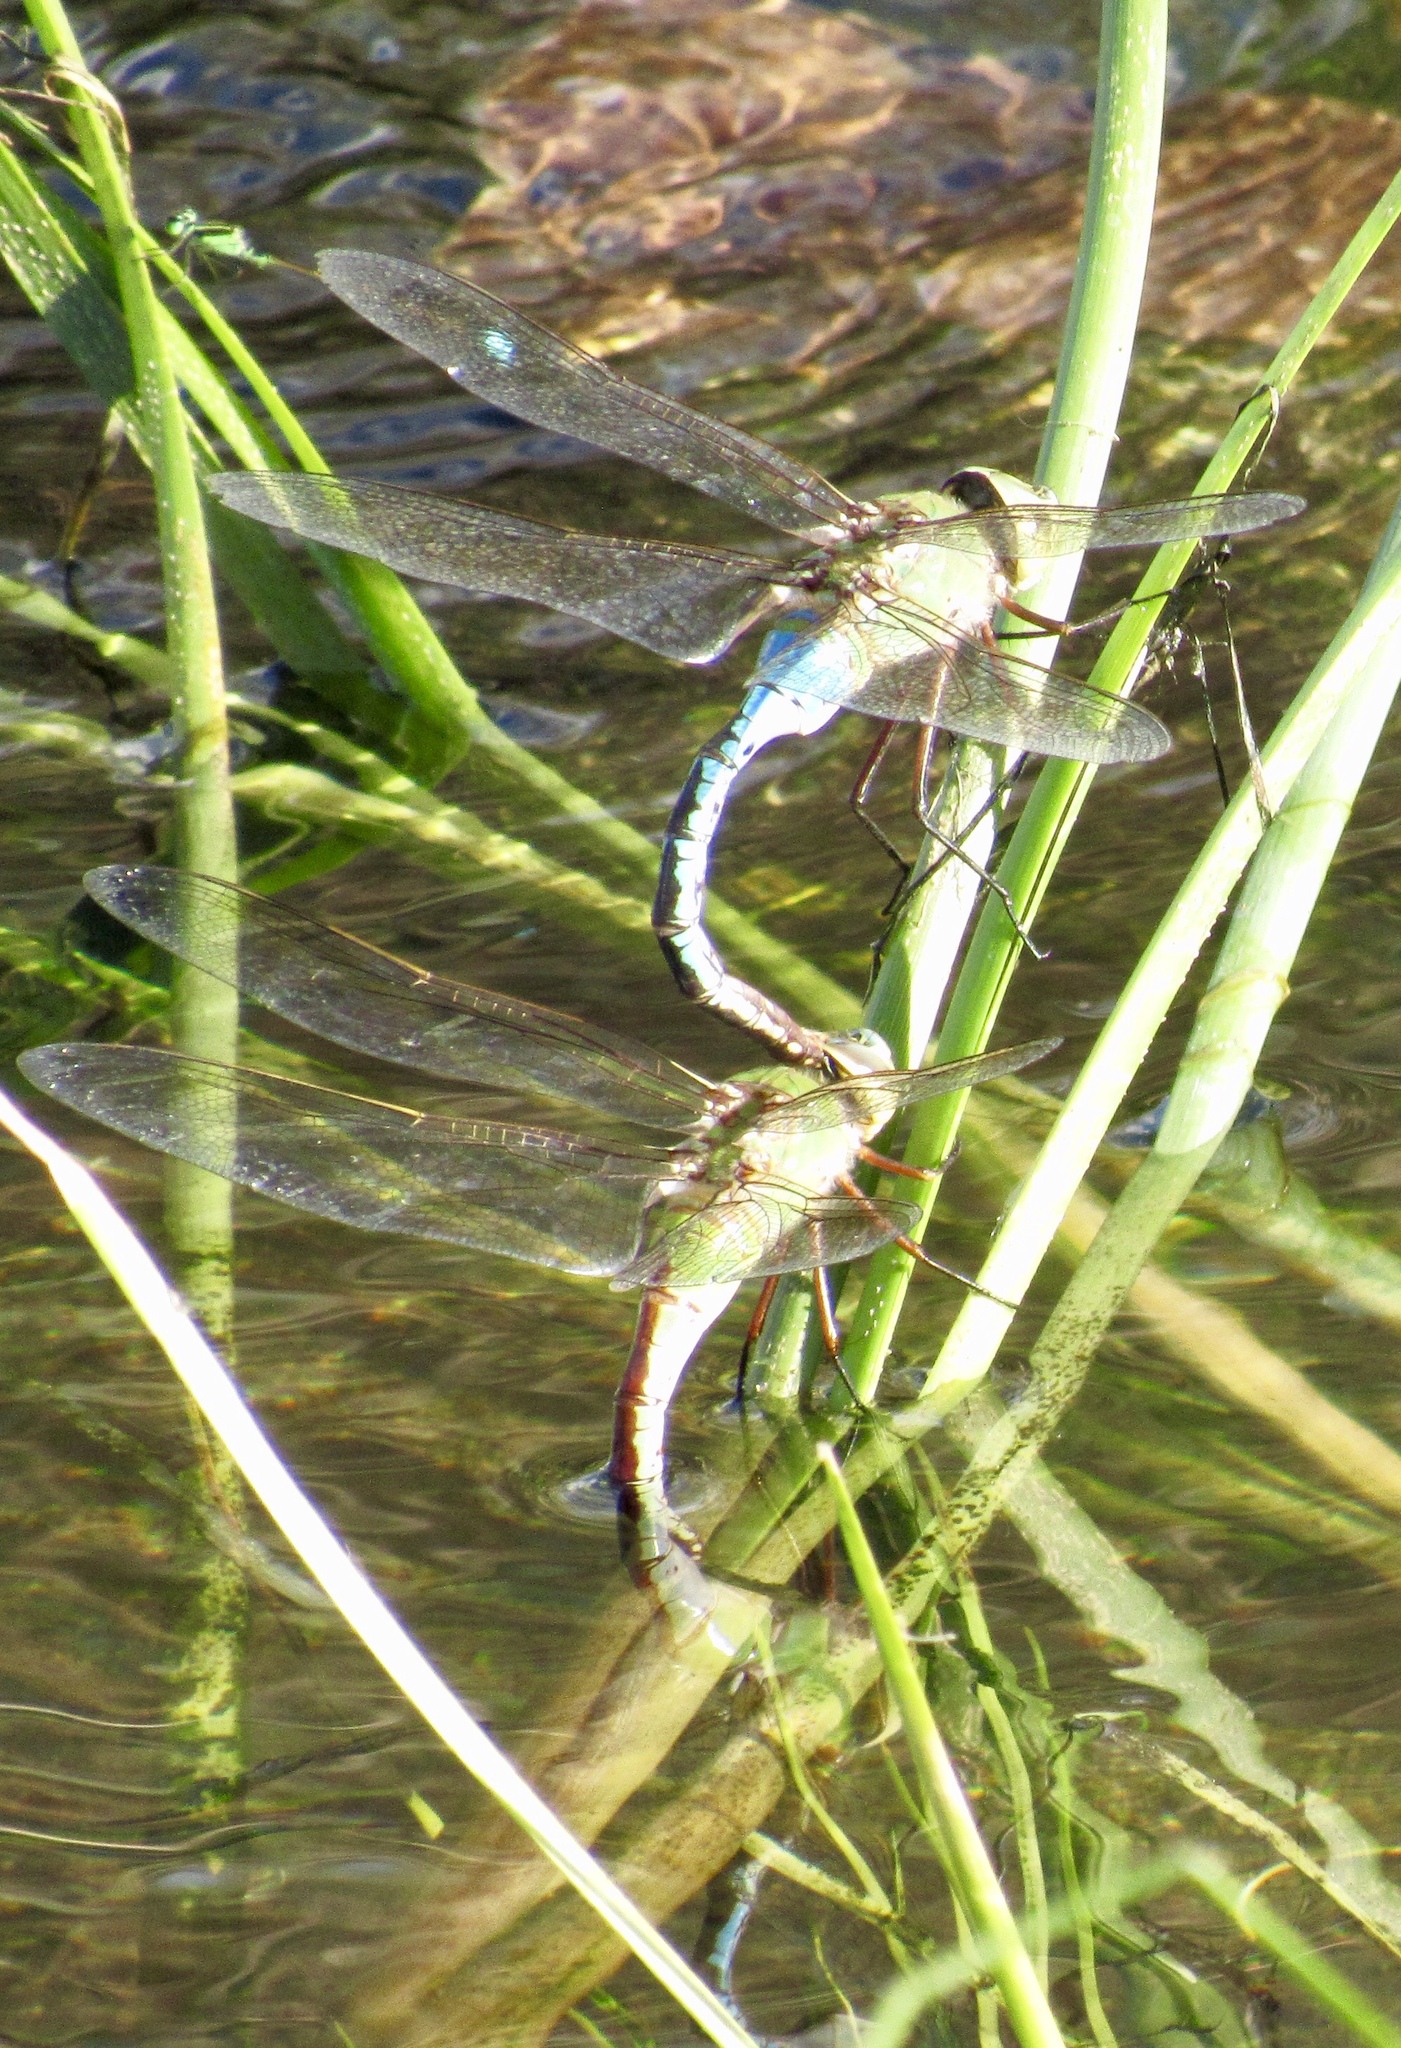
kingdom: Animalia
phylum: Arthropoda
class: Insecta
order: Odonata
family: Aeshnidae
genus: Anax
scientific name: Anax junius
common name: Common green darner
